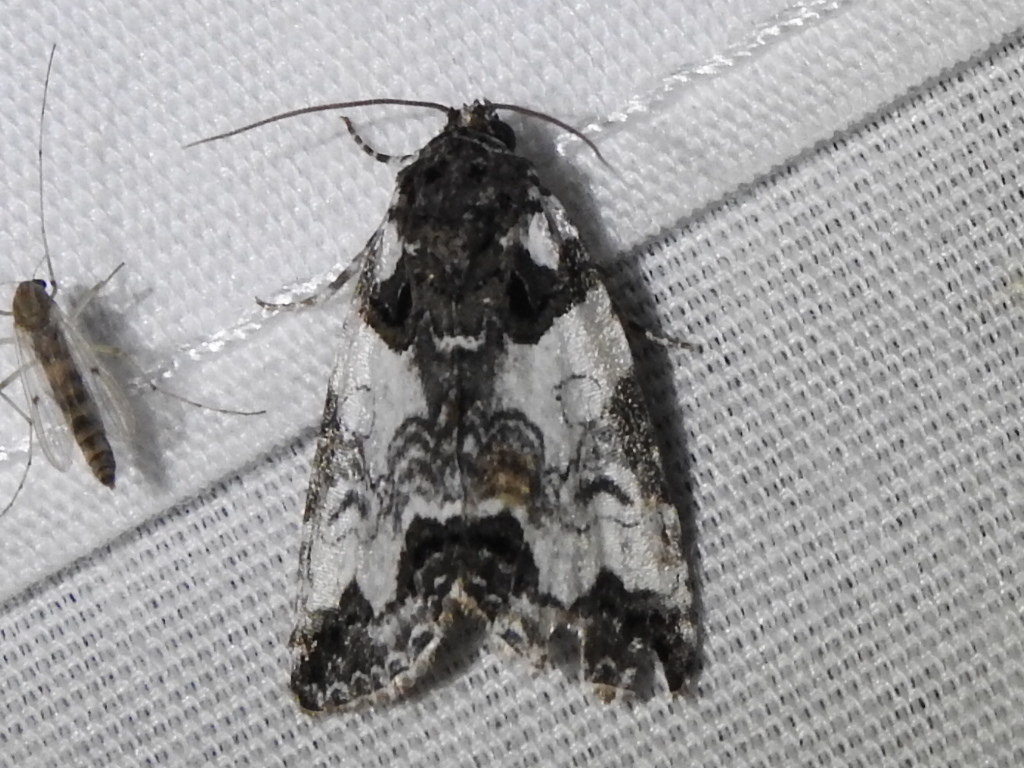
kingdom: Animalia
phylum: Arthropoda
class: Insecta
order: Lepidoptera
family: Noctuidae
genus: Cerma
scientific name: Cerma cerintha
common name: Tufted bird-dropping moth
